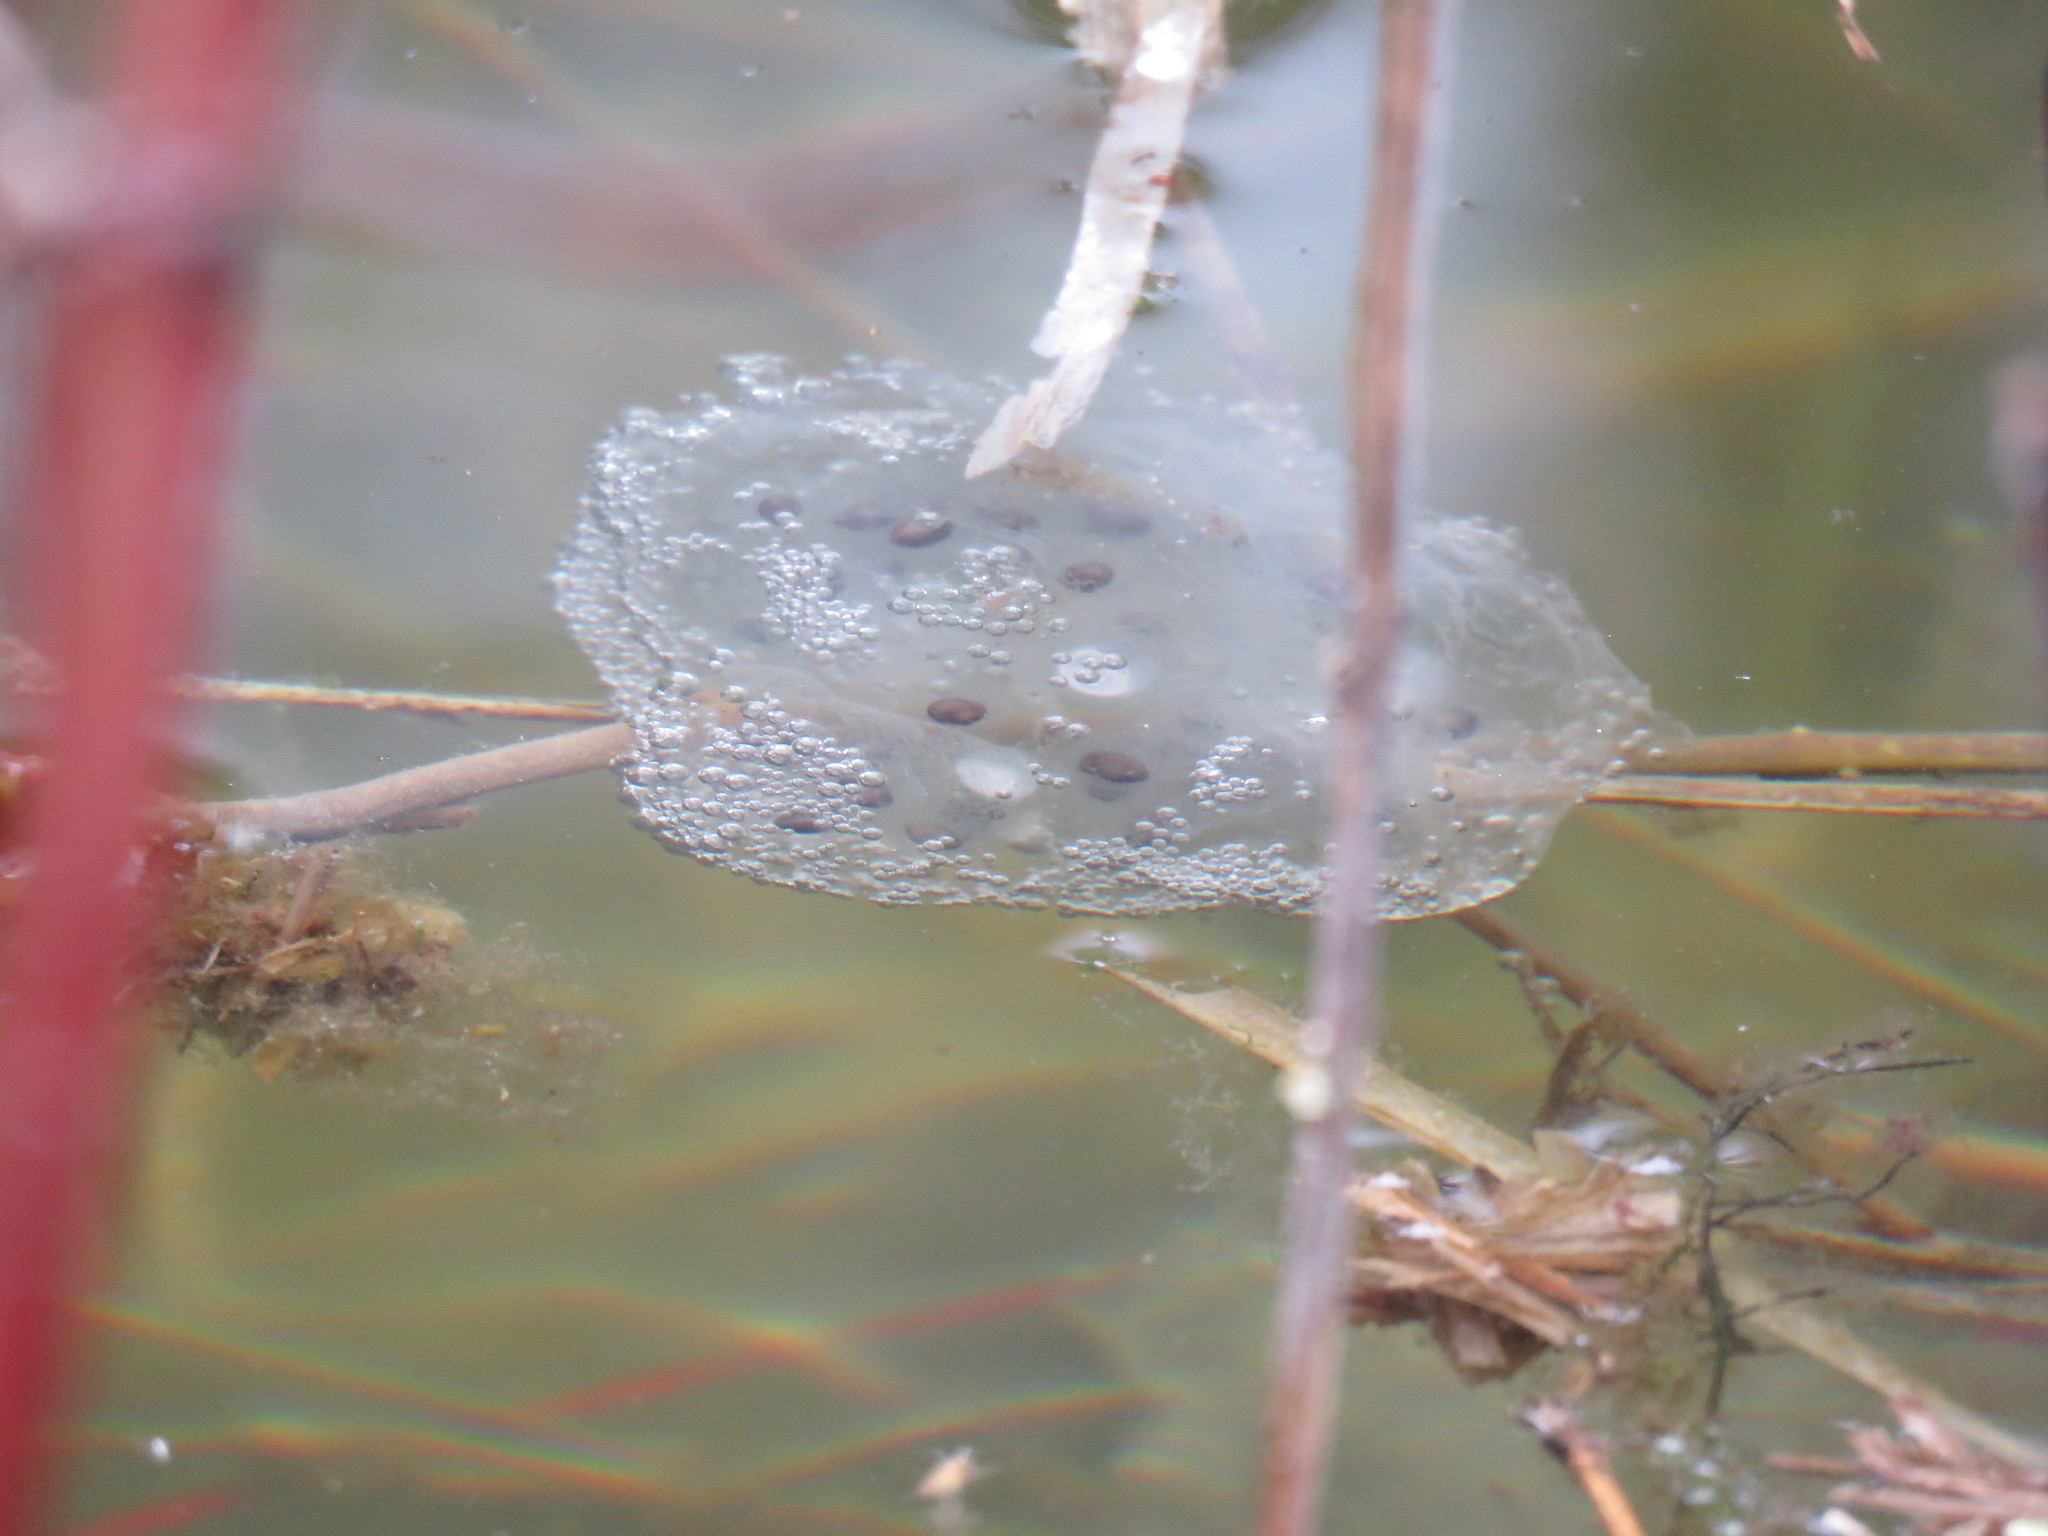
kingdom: Animalia
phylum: Chordata
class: Amphibia
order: Caudata
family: Ambystomatidae
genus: Ambystoma
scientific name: Ambystoma maculatum
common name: Spotted salamander
